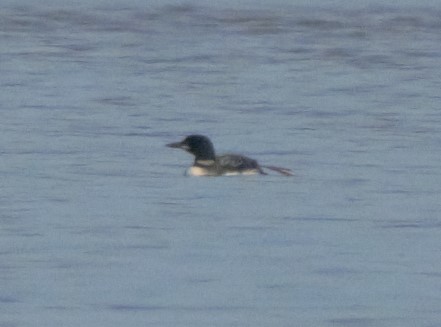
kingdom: Animalia
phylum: Chordata
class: Aves
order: Gaviiformes
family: Gaviidae
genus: Gavia
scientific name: Gavia immer
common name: Common loon
